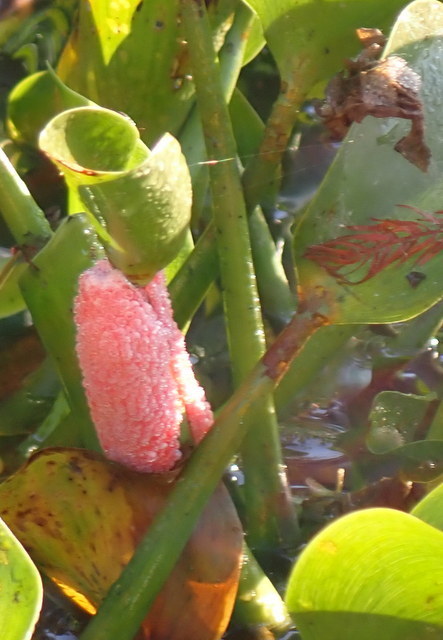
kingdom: Animalia
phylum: Mollusca
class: Gastropoda
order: Architaenioglossa
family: Ampullariidae
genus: Pomacea
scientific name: Pomacea maculata
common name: Giant applesnail
